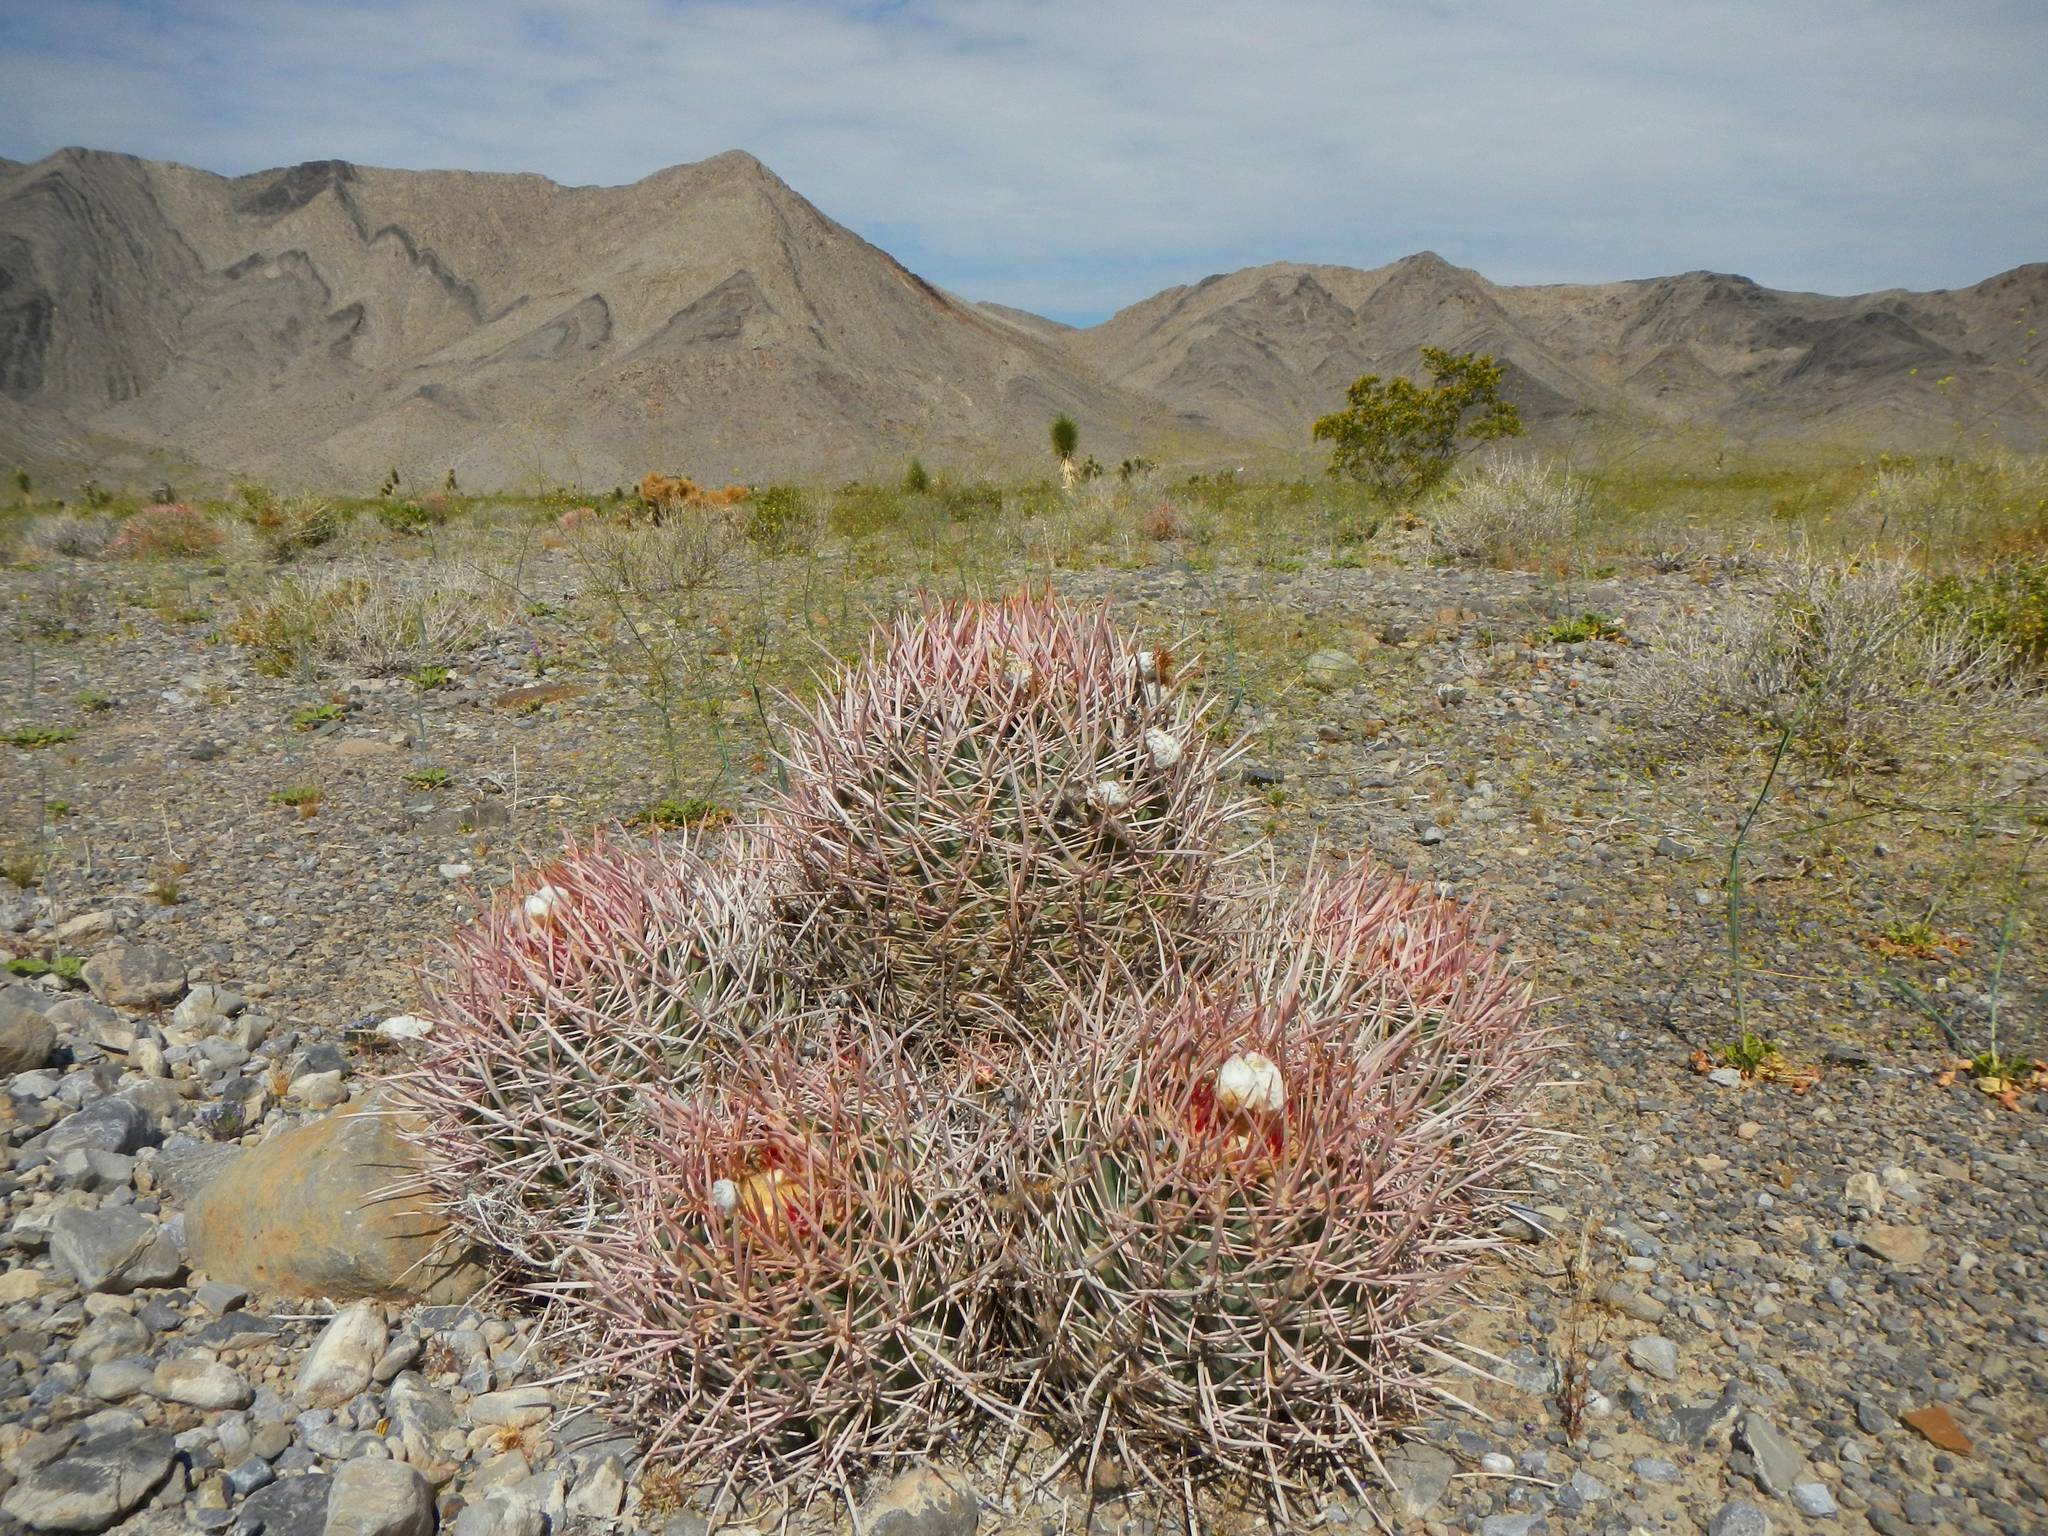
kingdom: Plantae
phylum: Tracheophyta
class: Magnoliopsida
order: Caryophyllales
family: Cactaceae
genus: Echinocactus
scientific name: Echinocactus polycephalus
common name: Cottontop cactus
